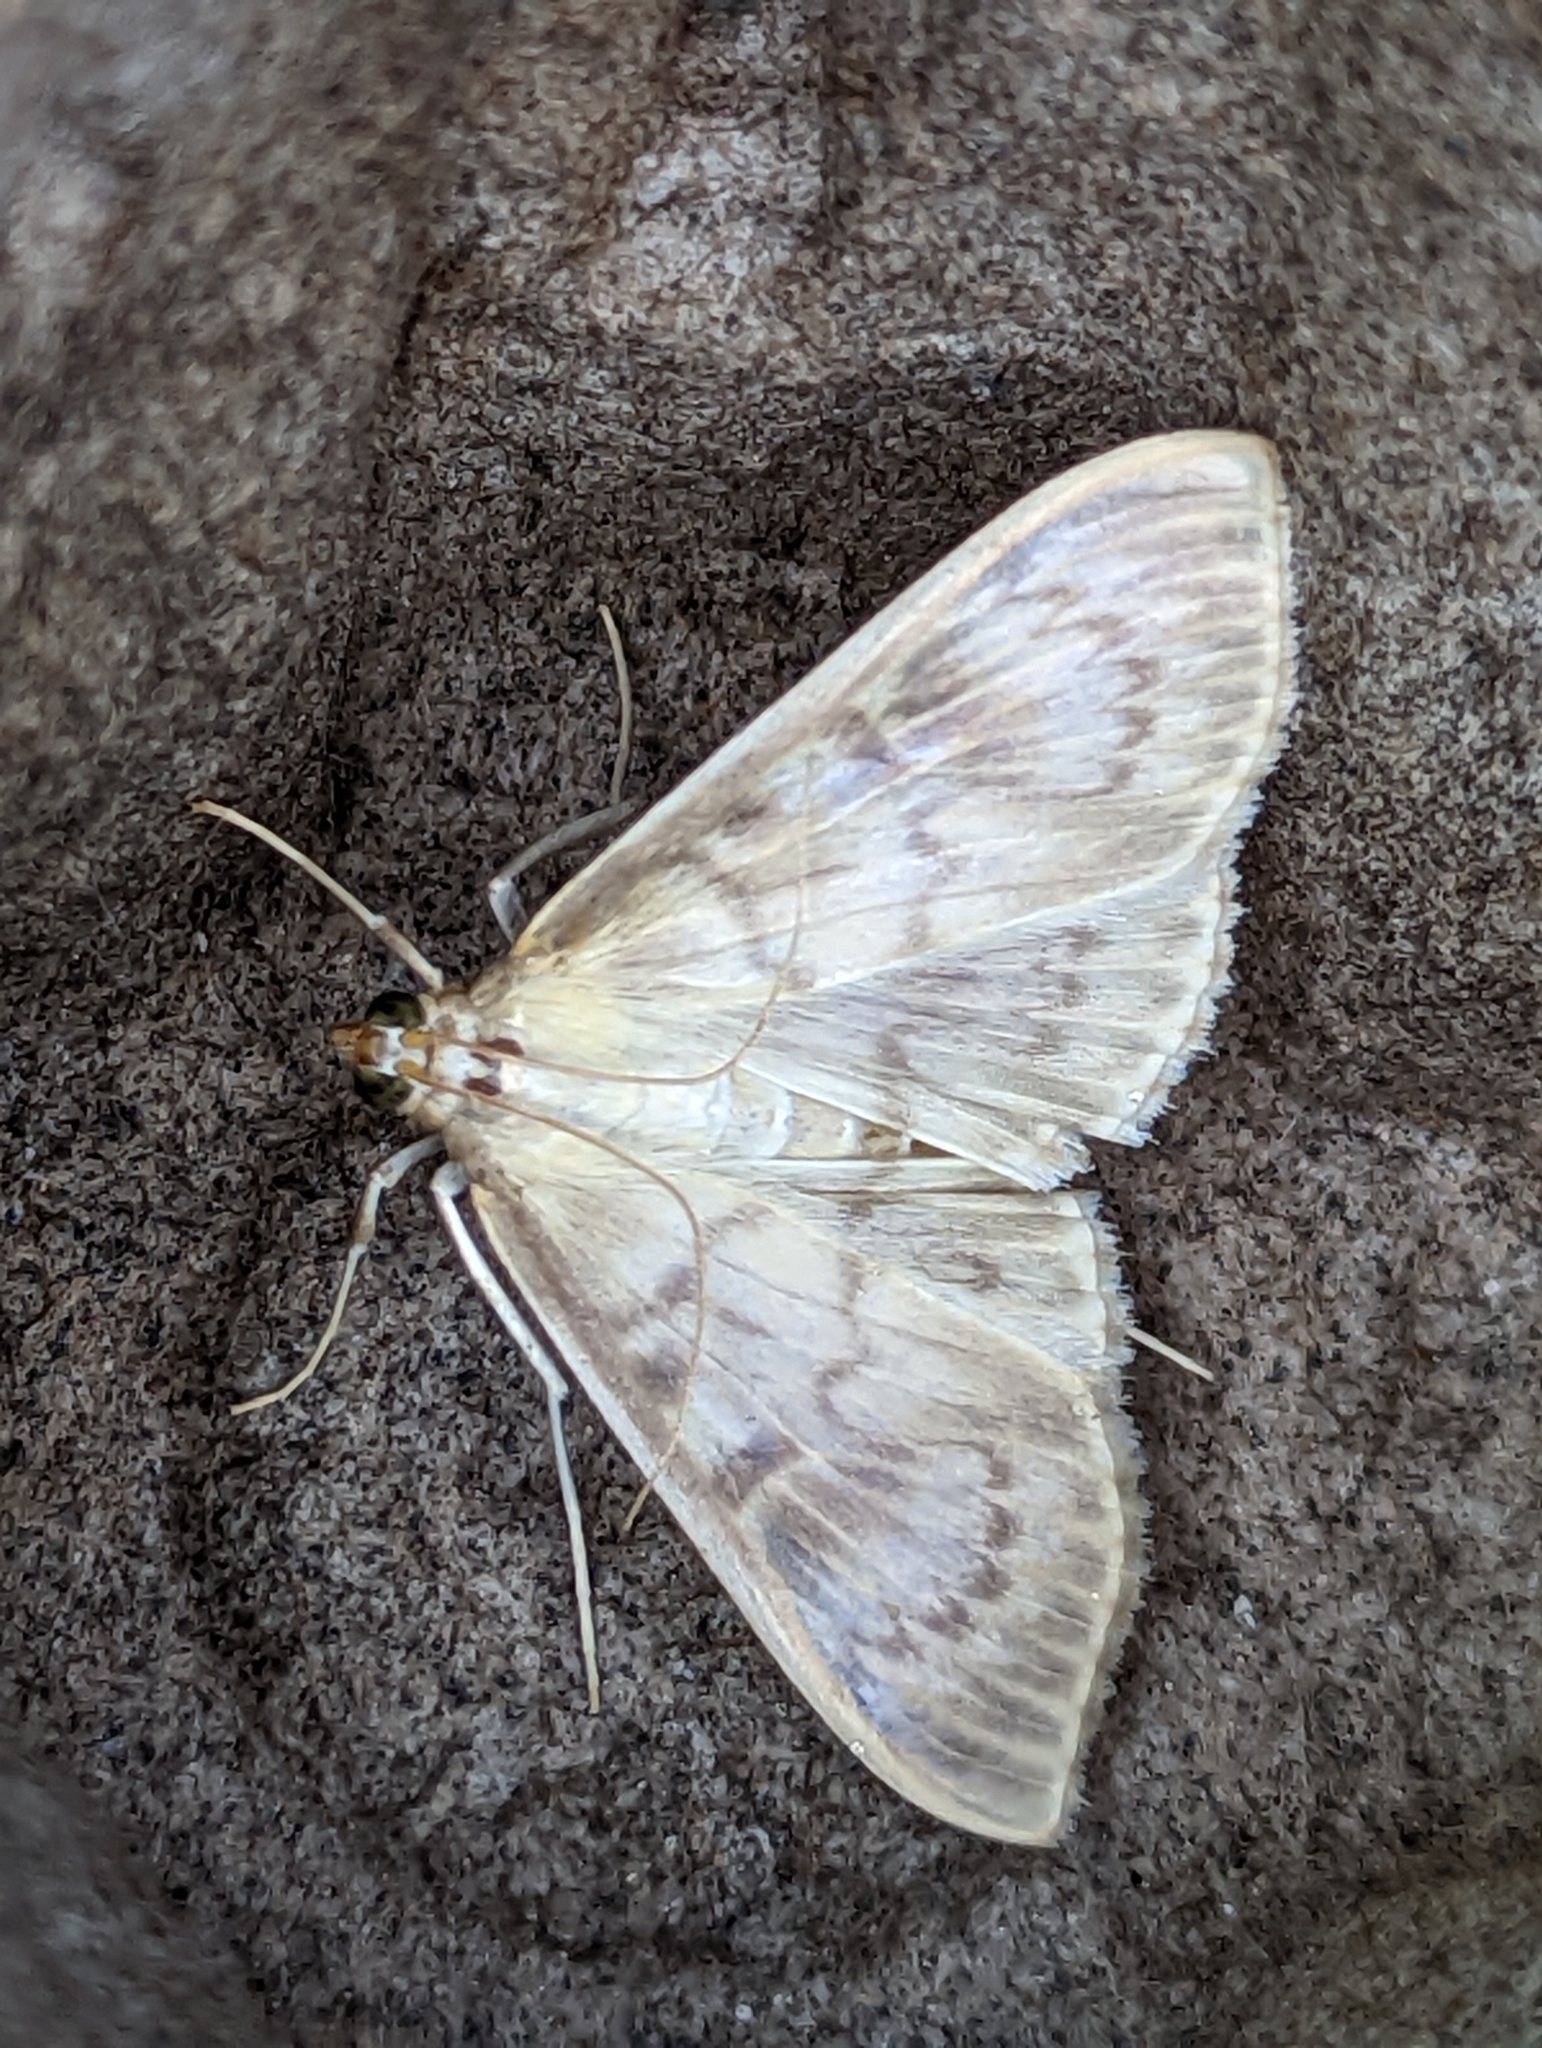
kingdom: Animalia
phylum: Arthropoda
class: Insecta
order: Lepidoptera
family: Crambidae
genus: Patania
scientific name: Patania ruralis
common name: Mother of pearl
